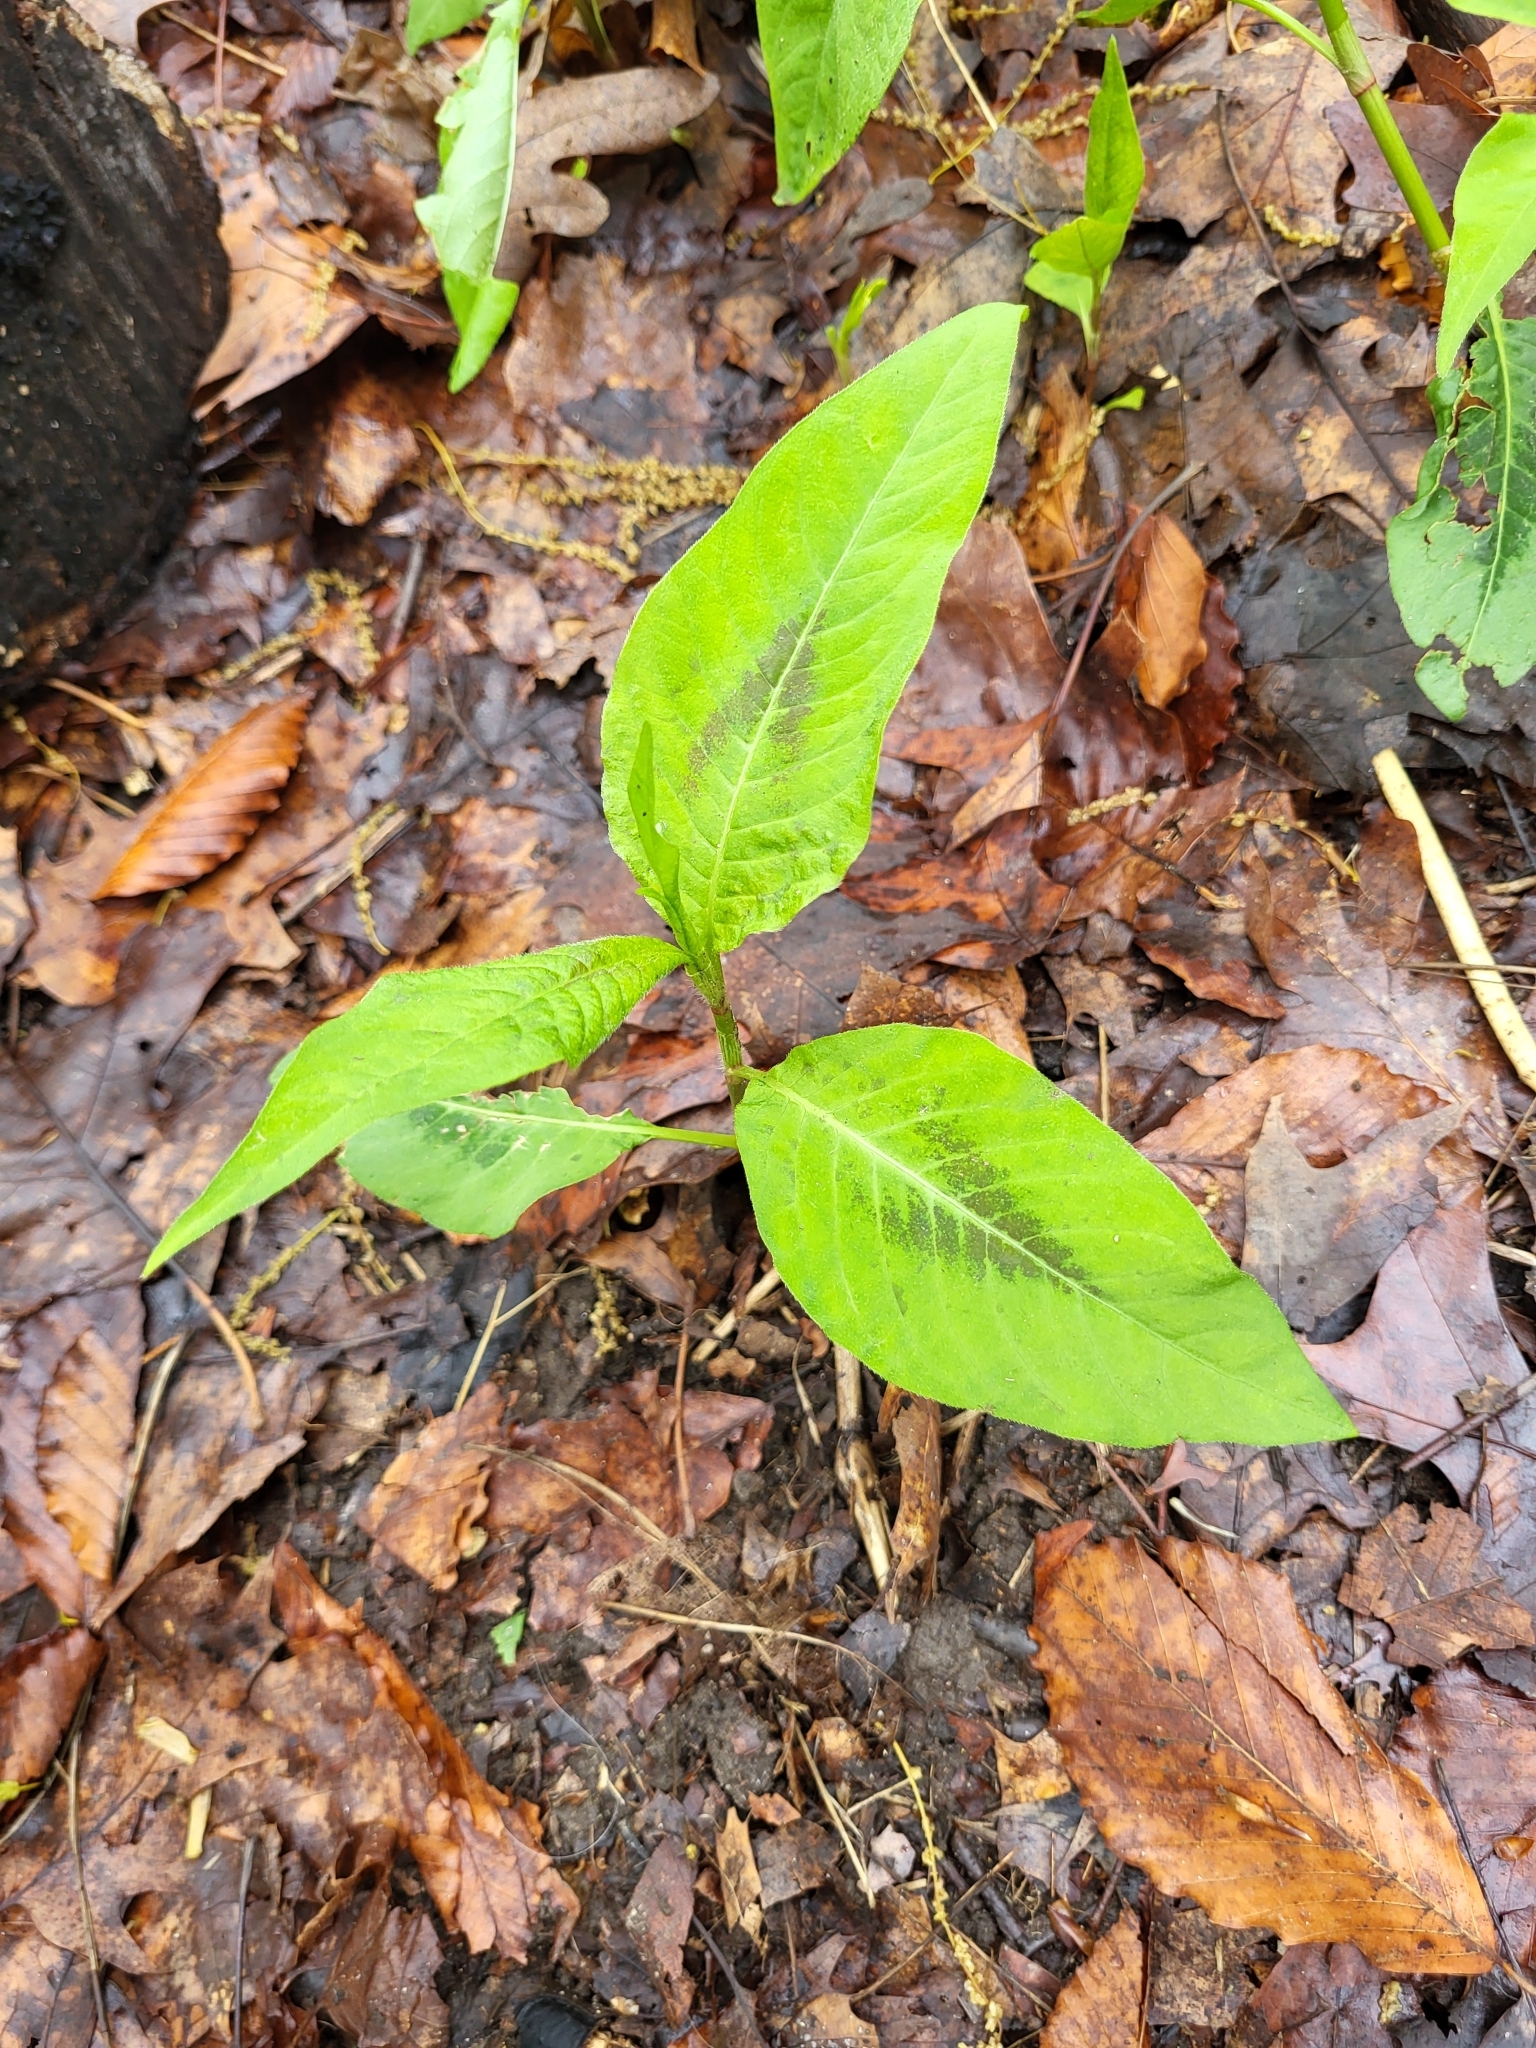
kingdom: Plantae
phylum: Tracheophyta
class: Magnoliopsida
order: Caryophyllales
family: Polygonaceae
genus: Persicaria
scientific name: Persicaria virginiana
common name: Jumpseed
